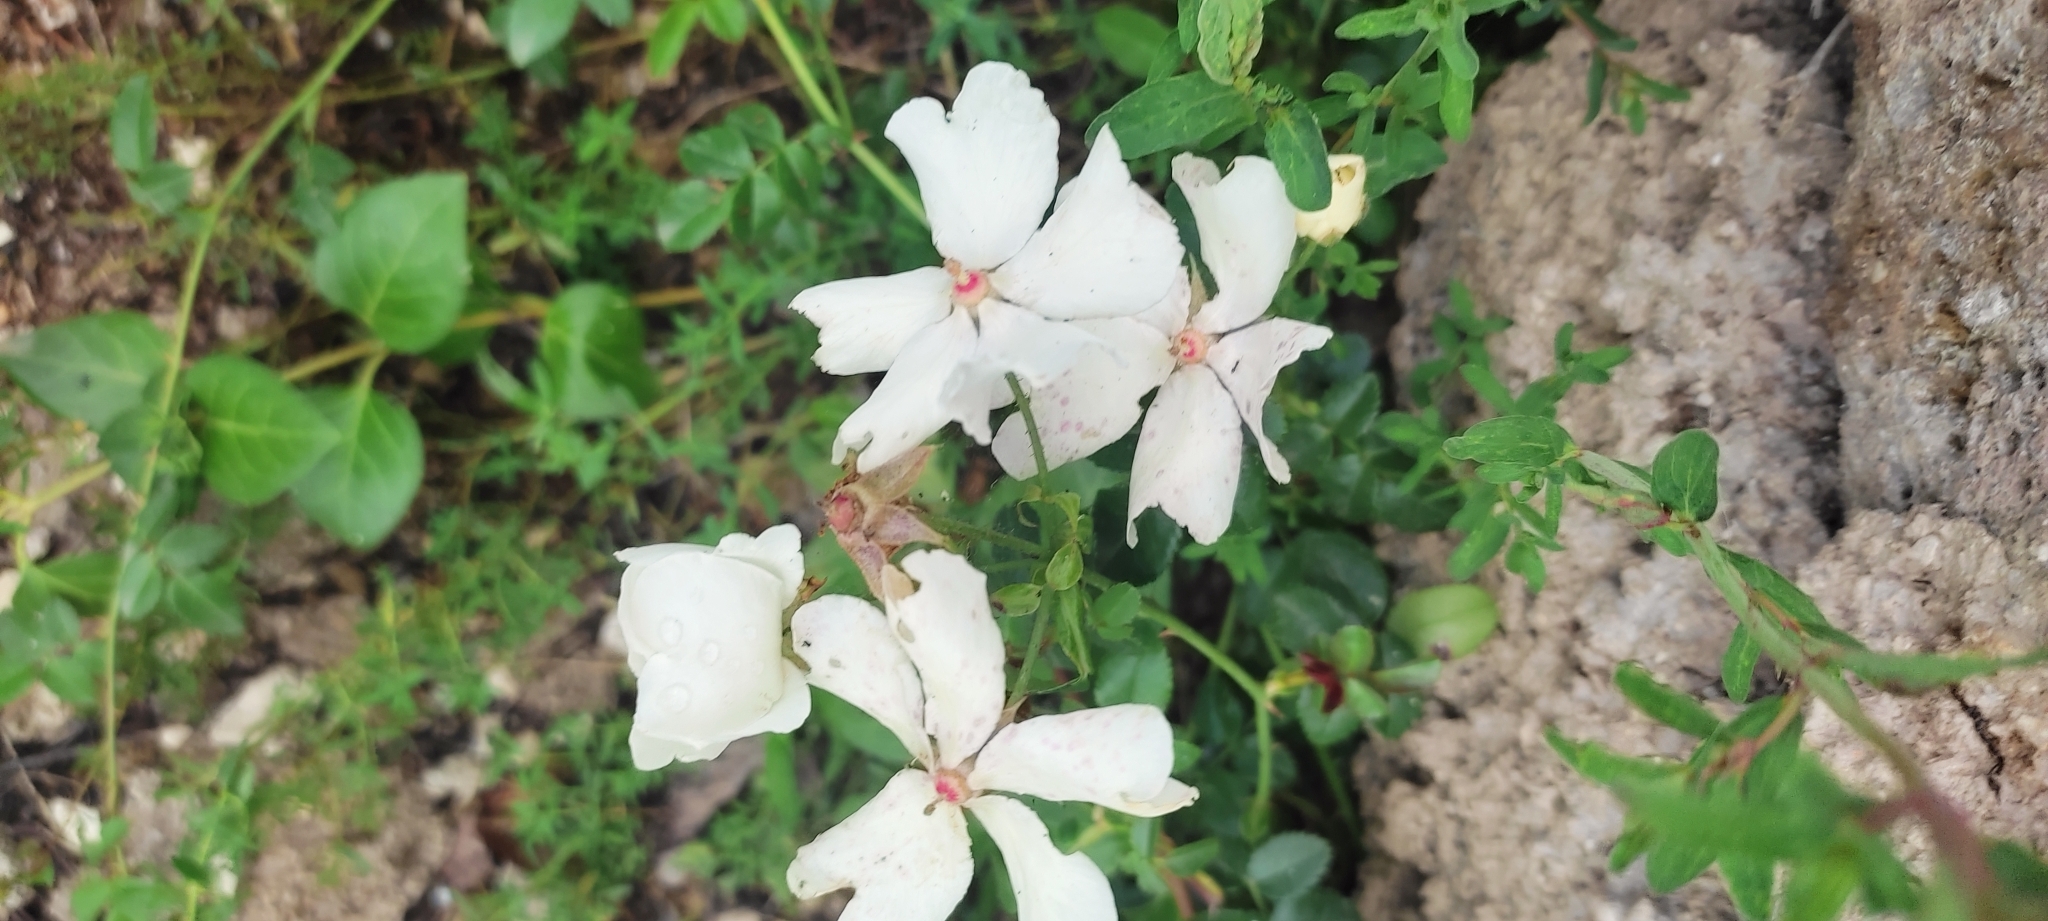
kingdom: Plantae
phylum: Tracheophyta
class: Magnoliopsida
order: Rosales
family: Rosaceae
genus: Rosa
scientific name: Rosa sempervirens
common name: Evergreen rose
